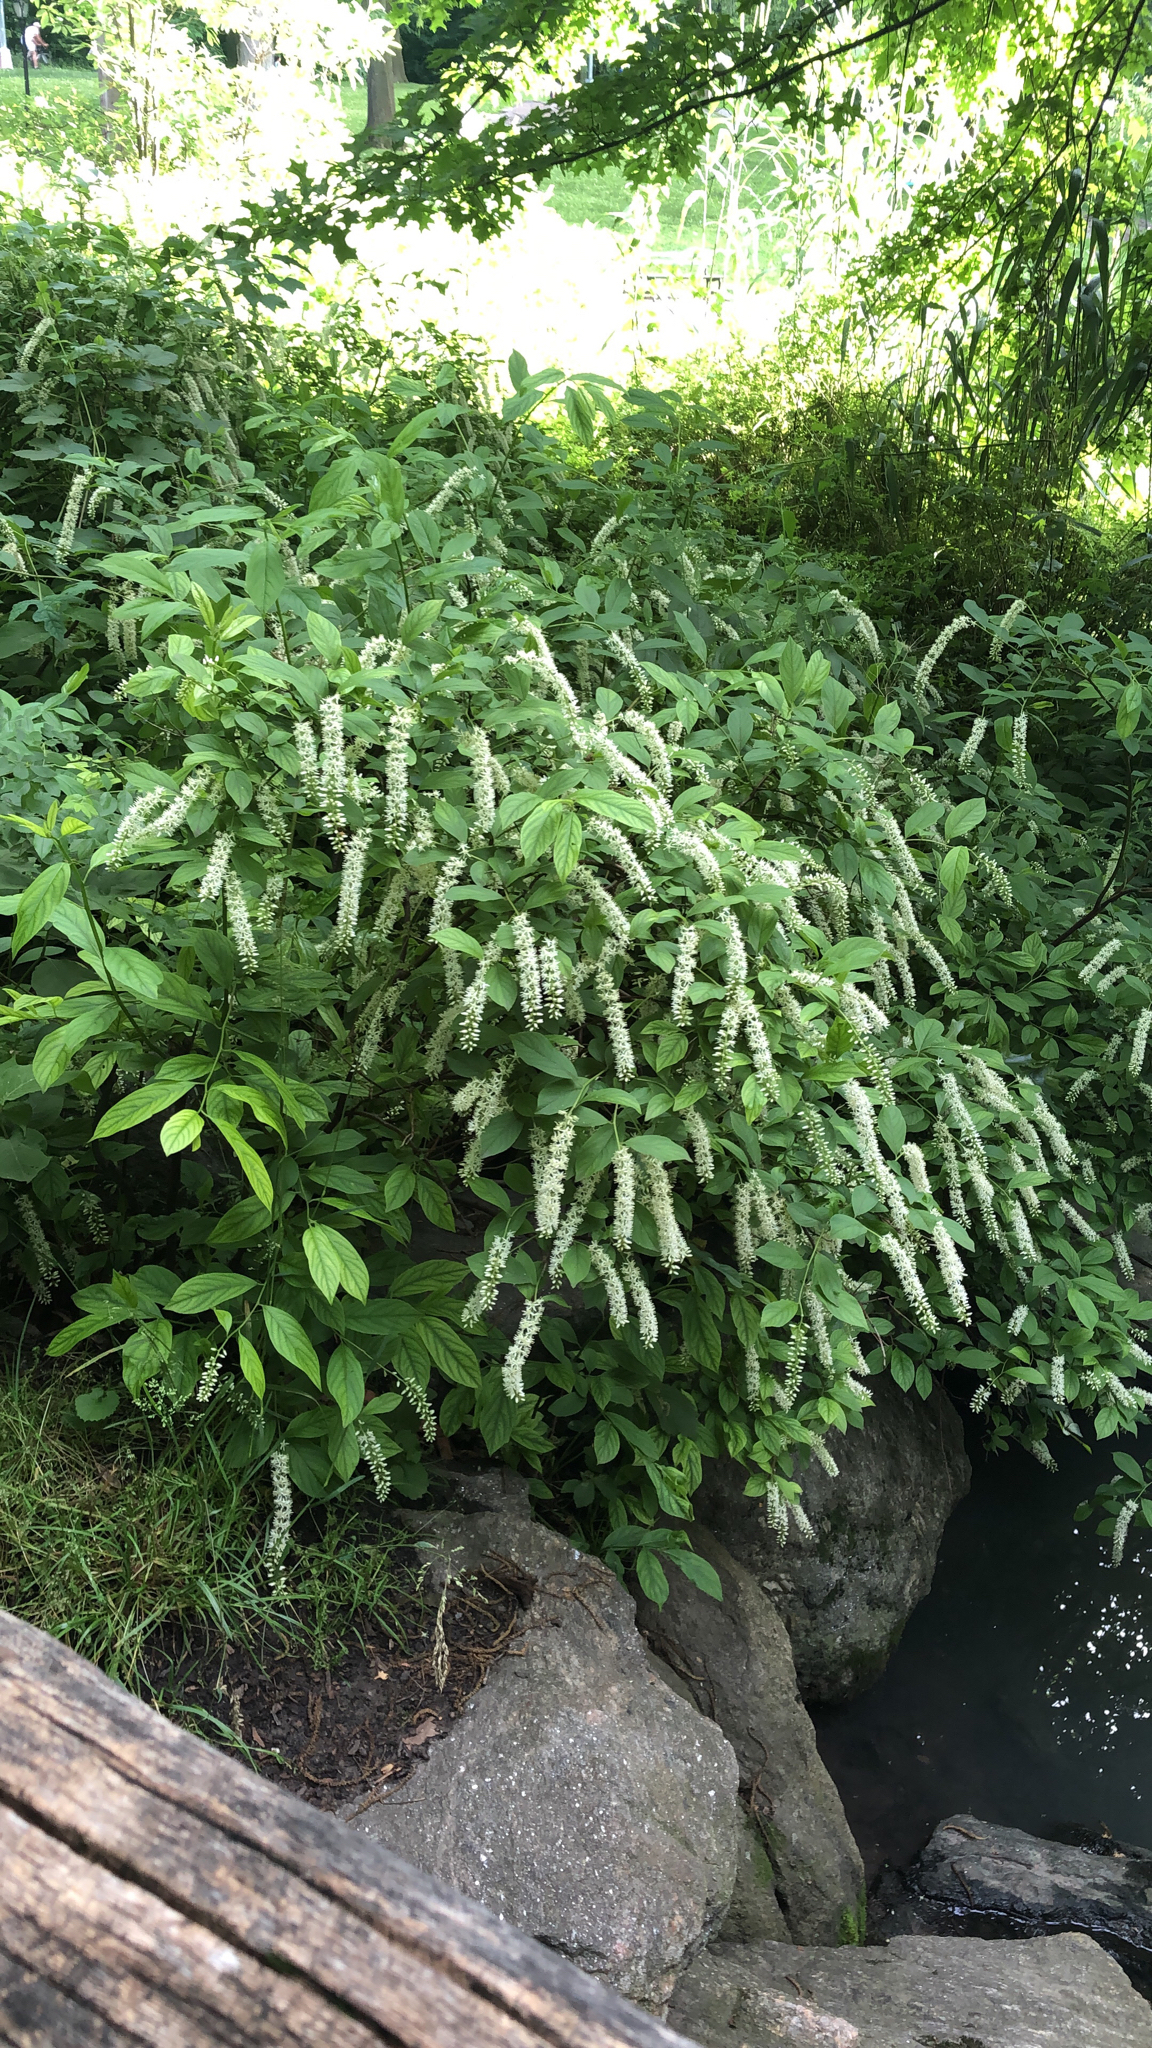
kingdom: Plantae
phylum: Tracheophyta
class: Magnoliopsida
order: Saxifragales
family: Iteaceae
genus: Itea
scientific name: Itea virginica
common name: Sweetspire
